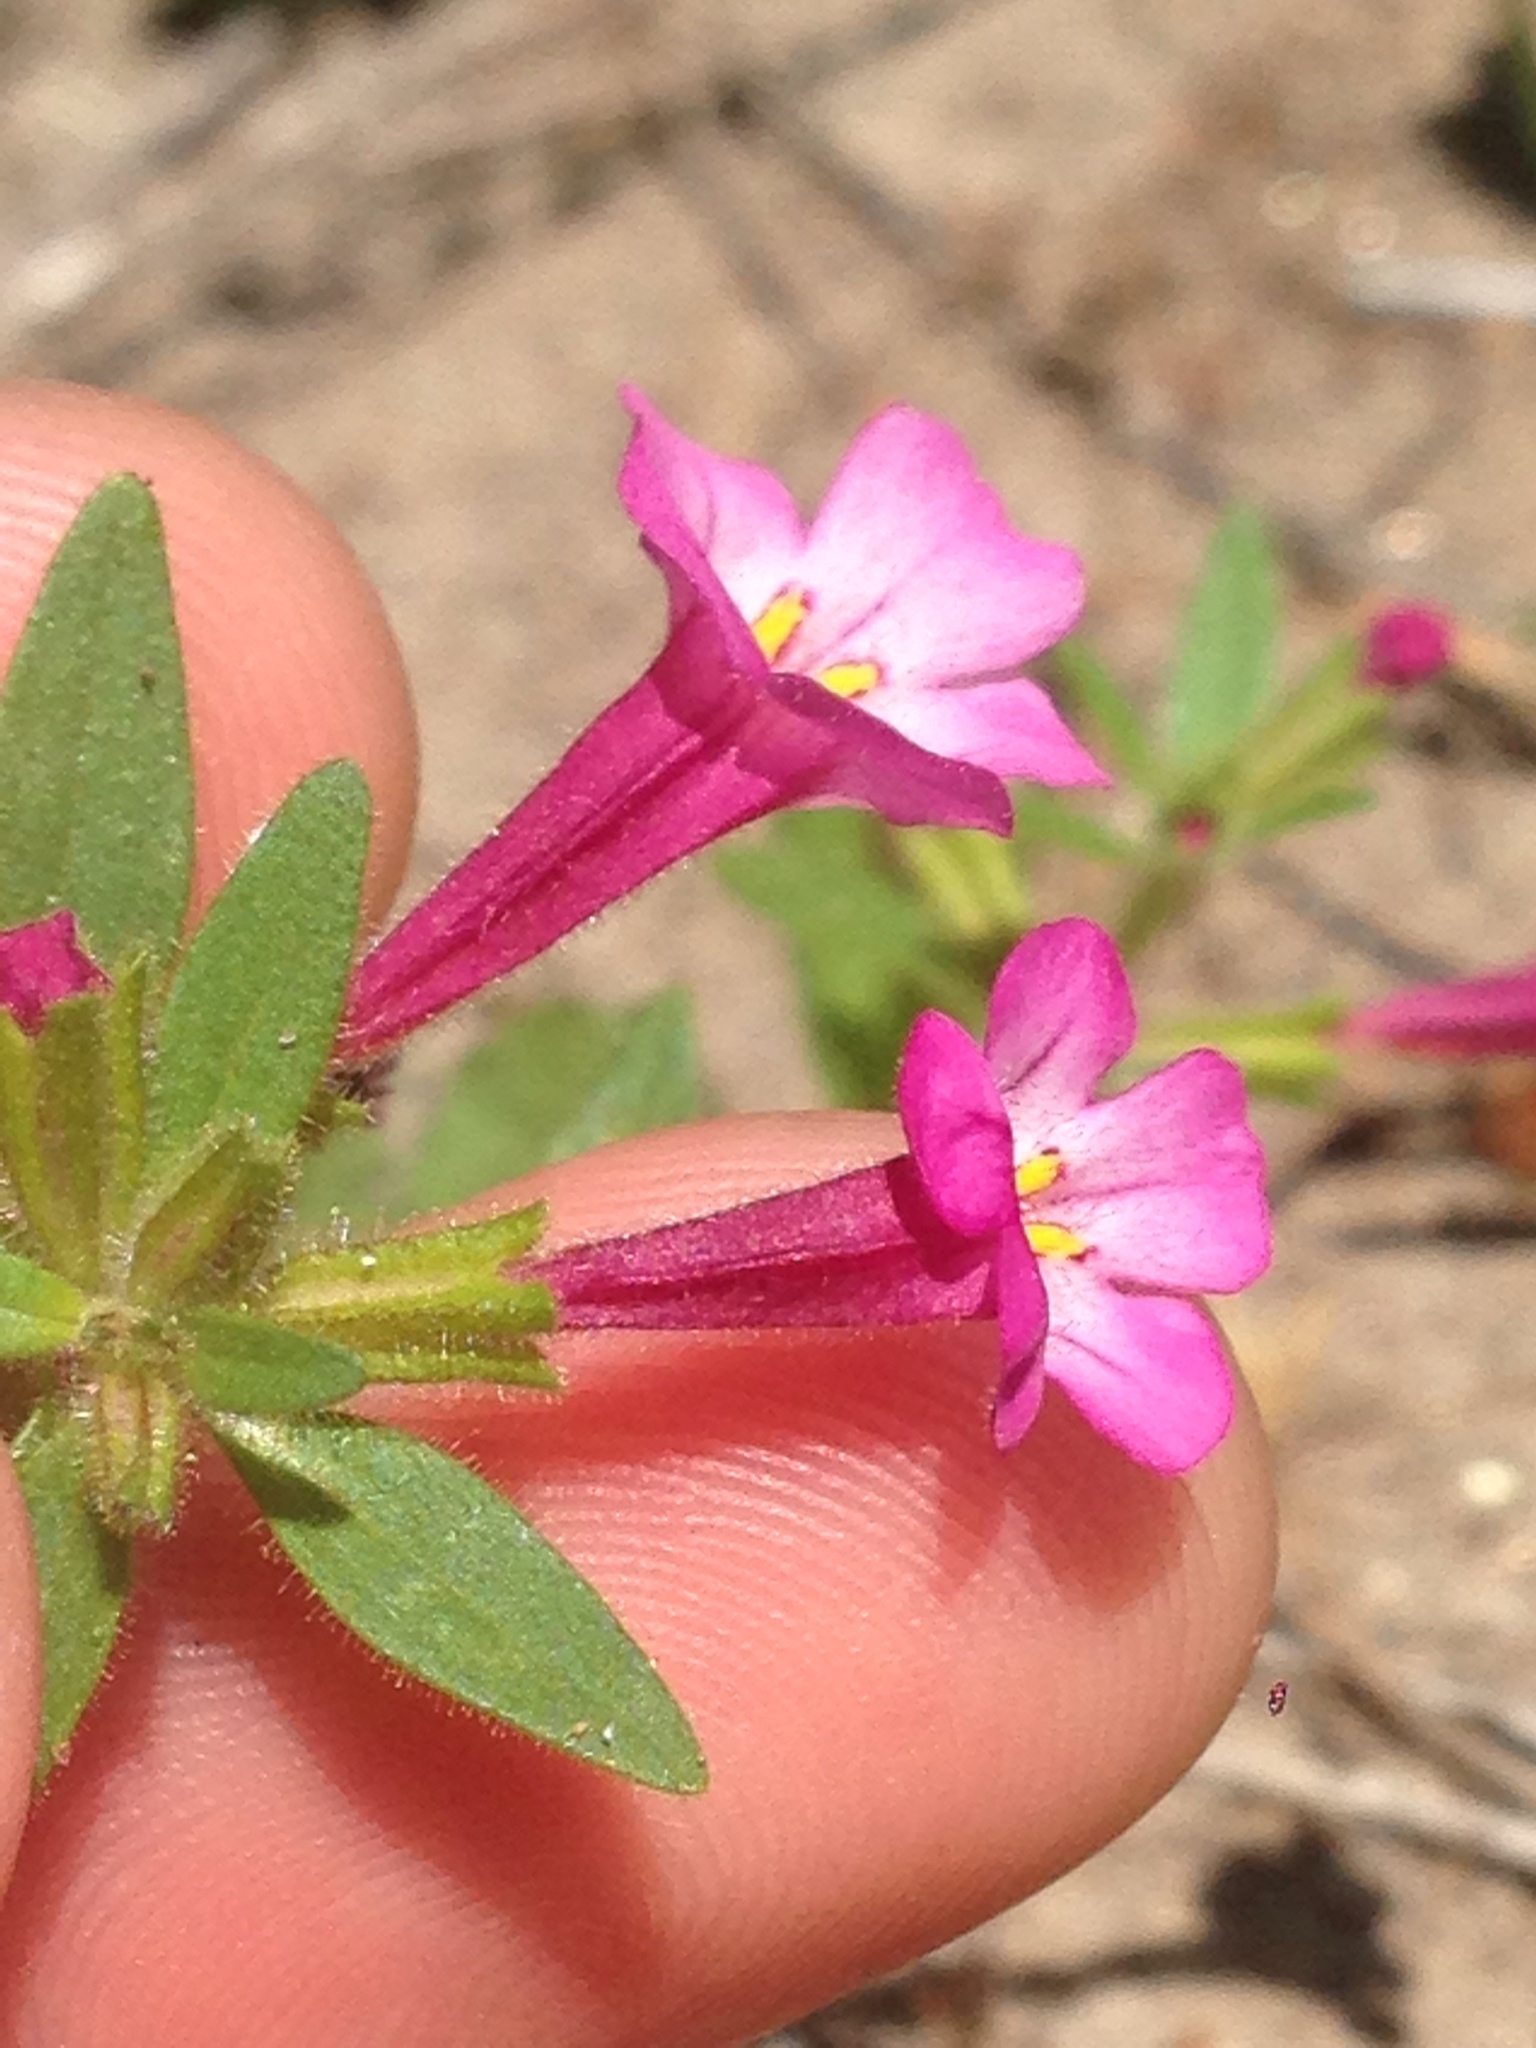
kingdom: Plantae
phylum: Tracheophyta
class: Magnoliopsida
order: Lamiales
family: Phrymaceae
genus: Diplacus
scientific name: Diplacus torreyi
